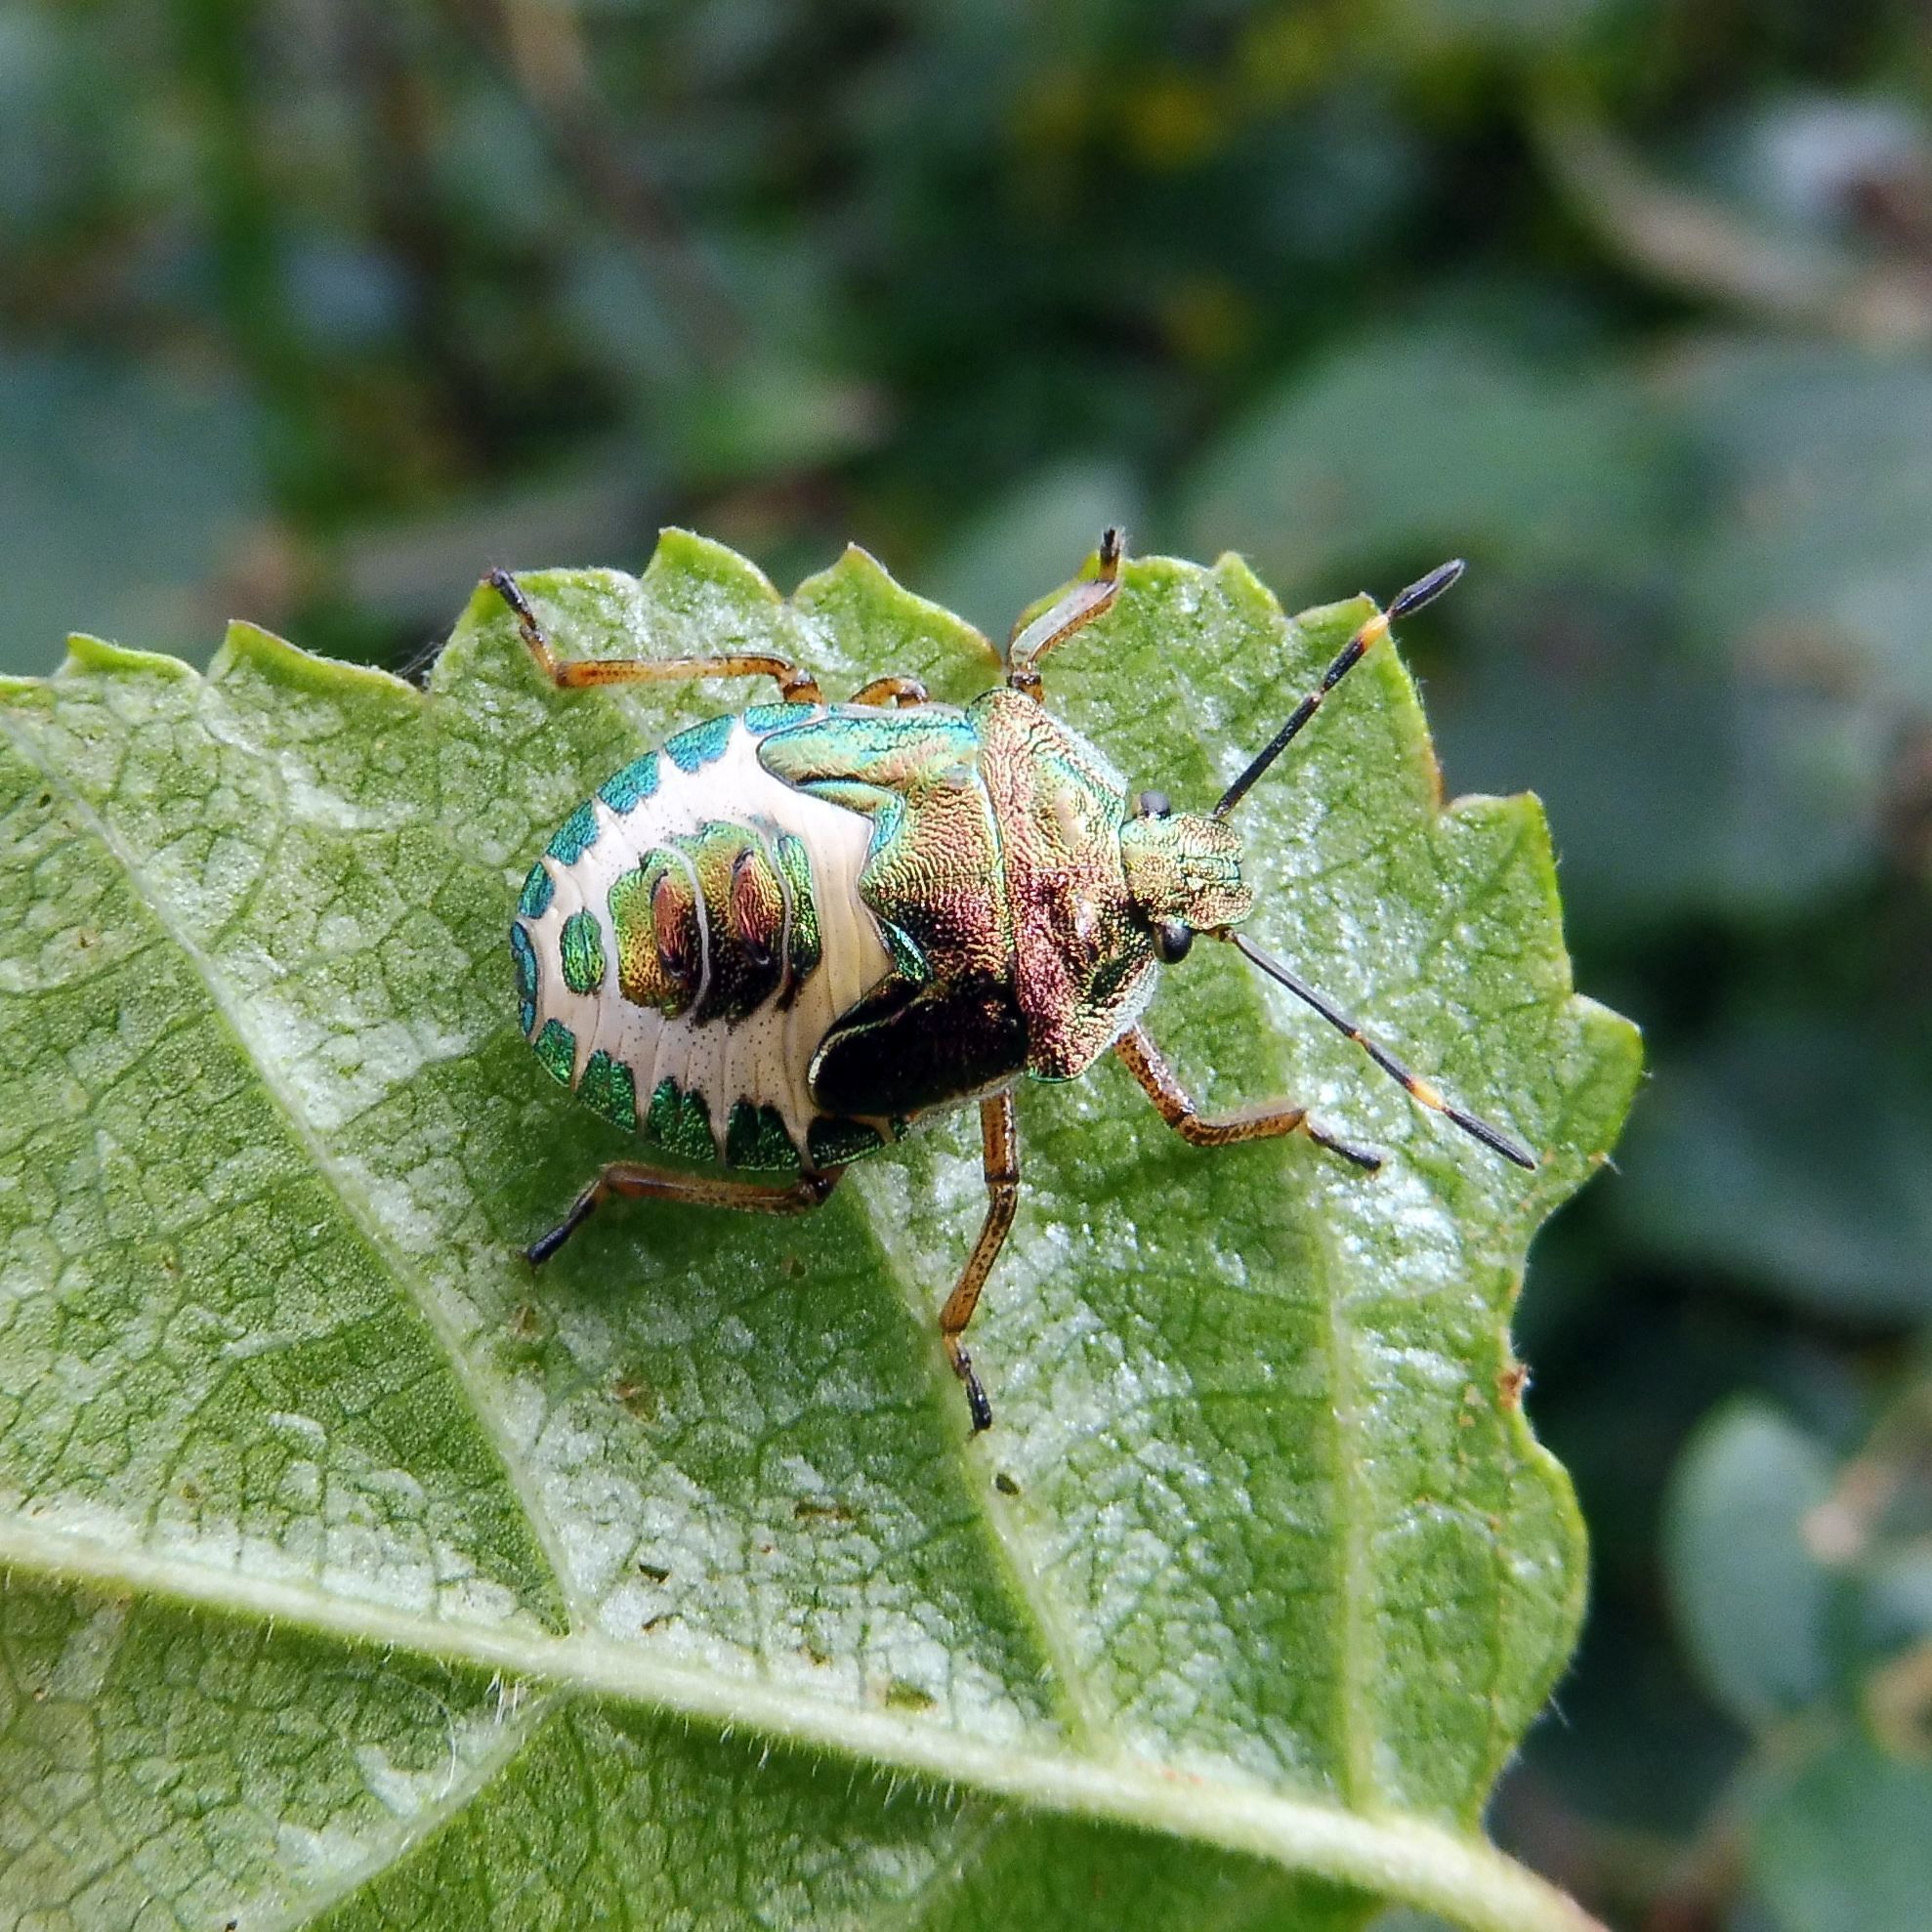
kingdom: Animalia
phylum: Arthropoda
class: Insecta
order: Hemiptera
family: Pentatomidae
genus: Troilus
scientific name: Troilus luridus
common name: Bronze shieldbug
